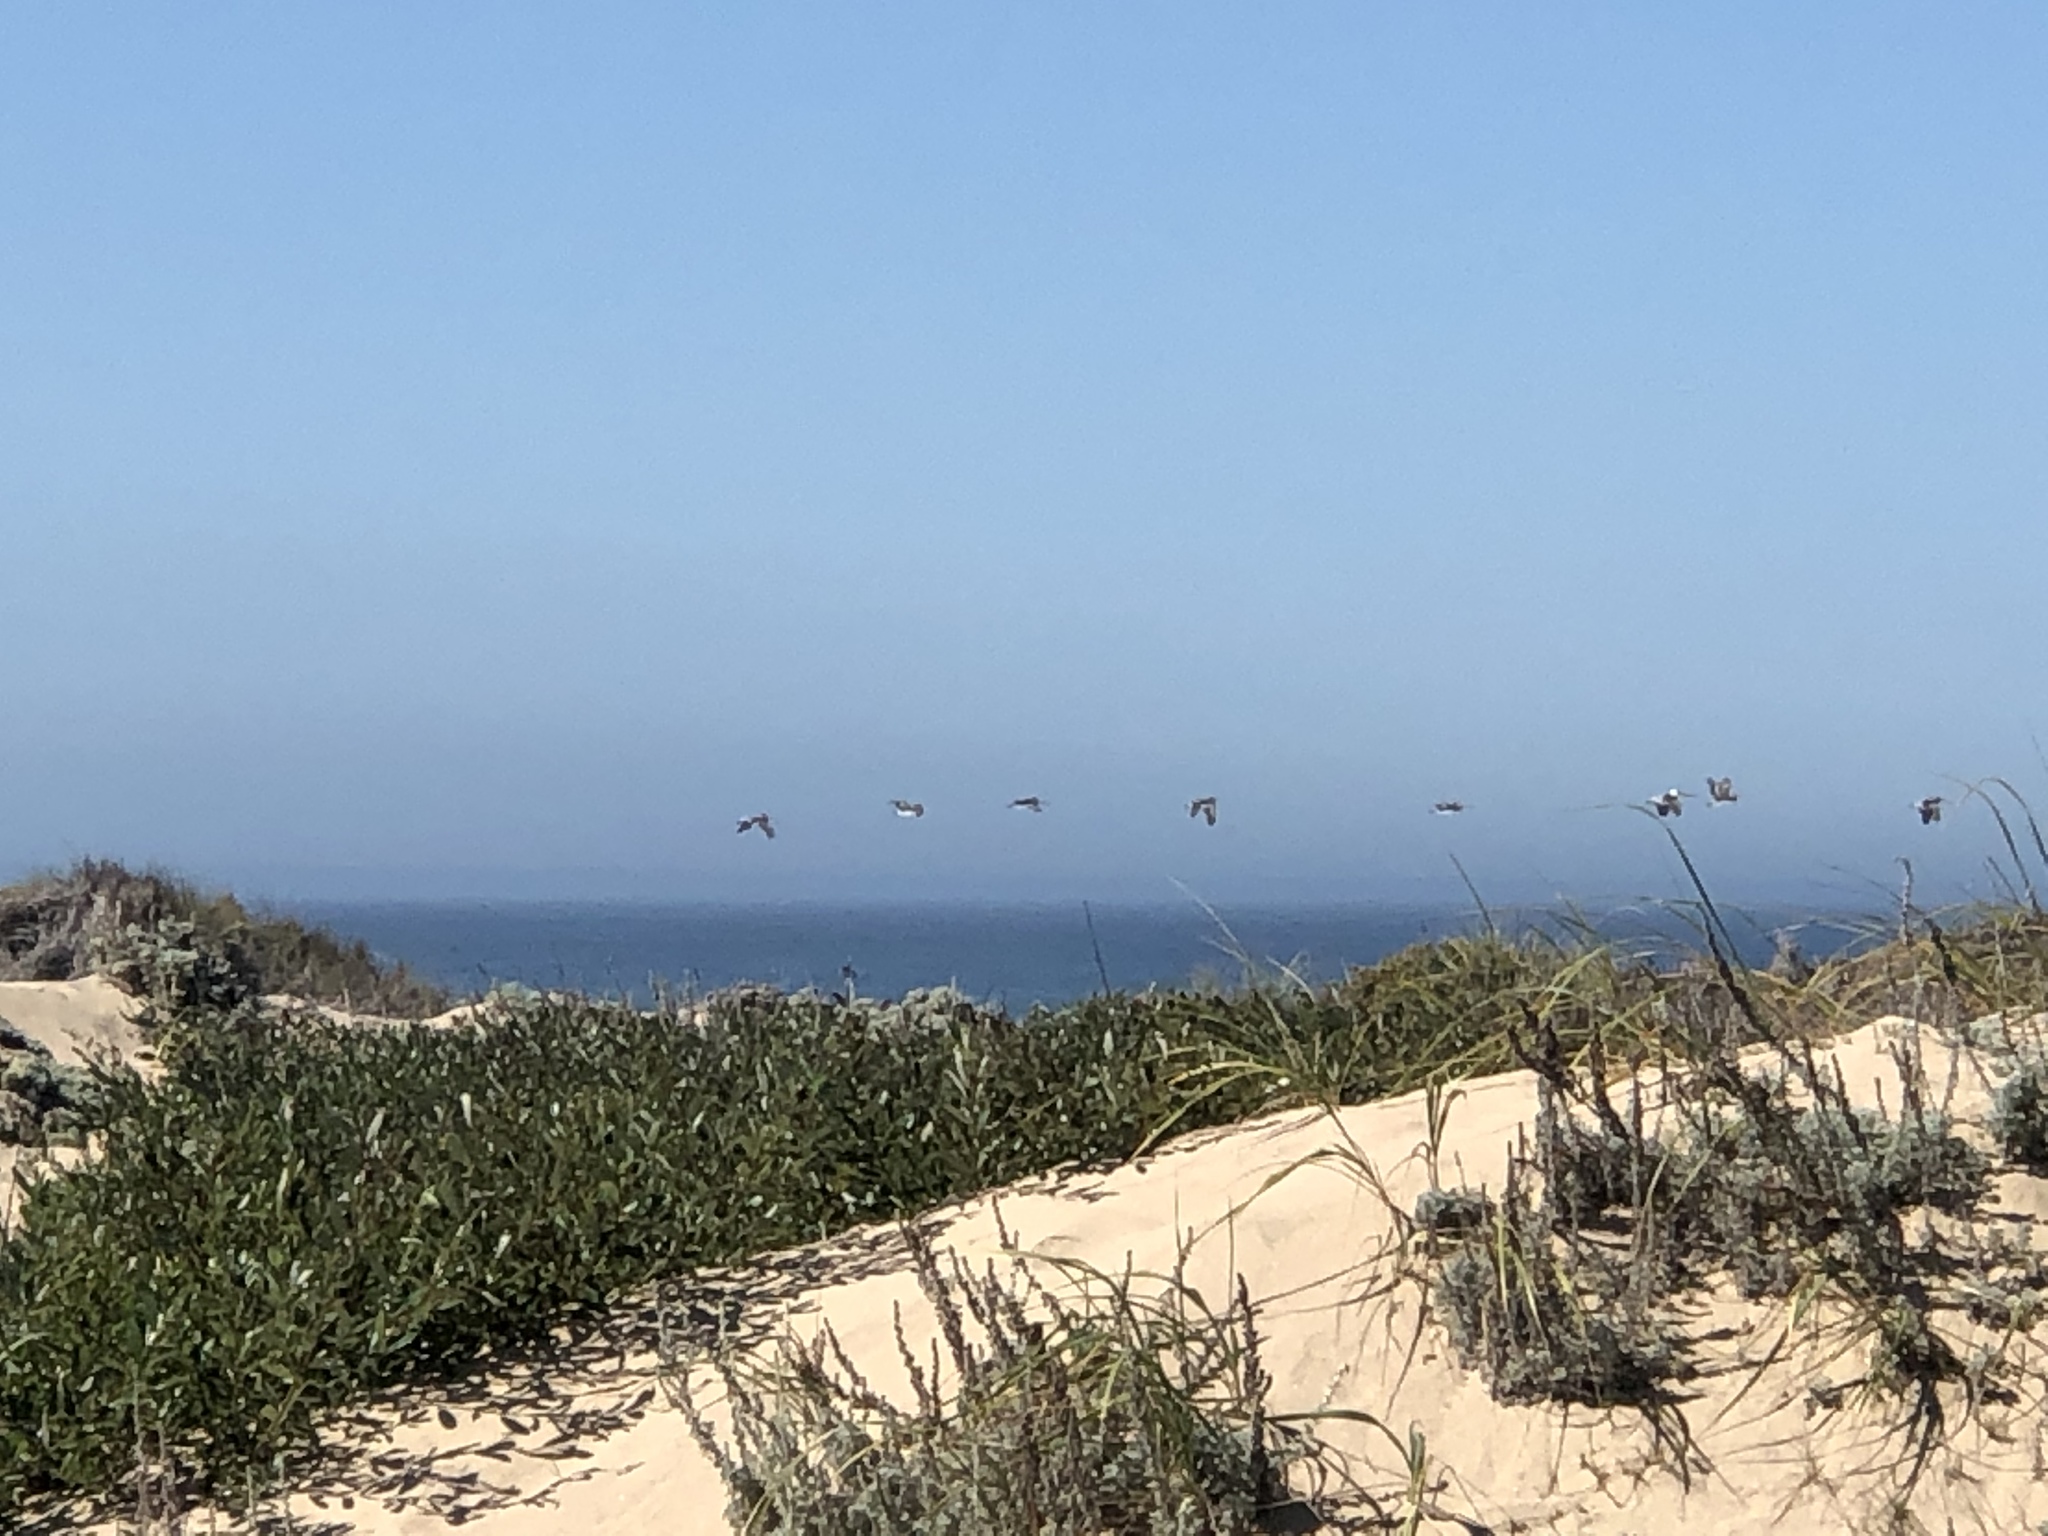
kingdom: Animalia
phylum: Chordata
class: Aves
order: Pelecaniformes
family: Pelecanidae
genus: Pelecanus
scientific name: Pelecanus occidentalis
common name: Brown pelican
